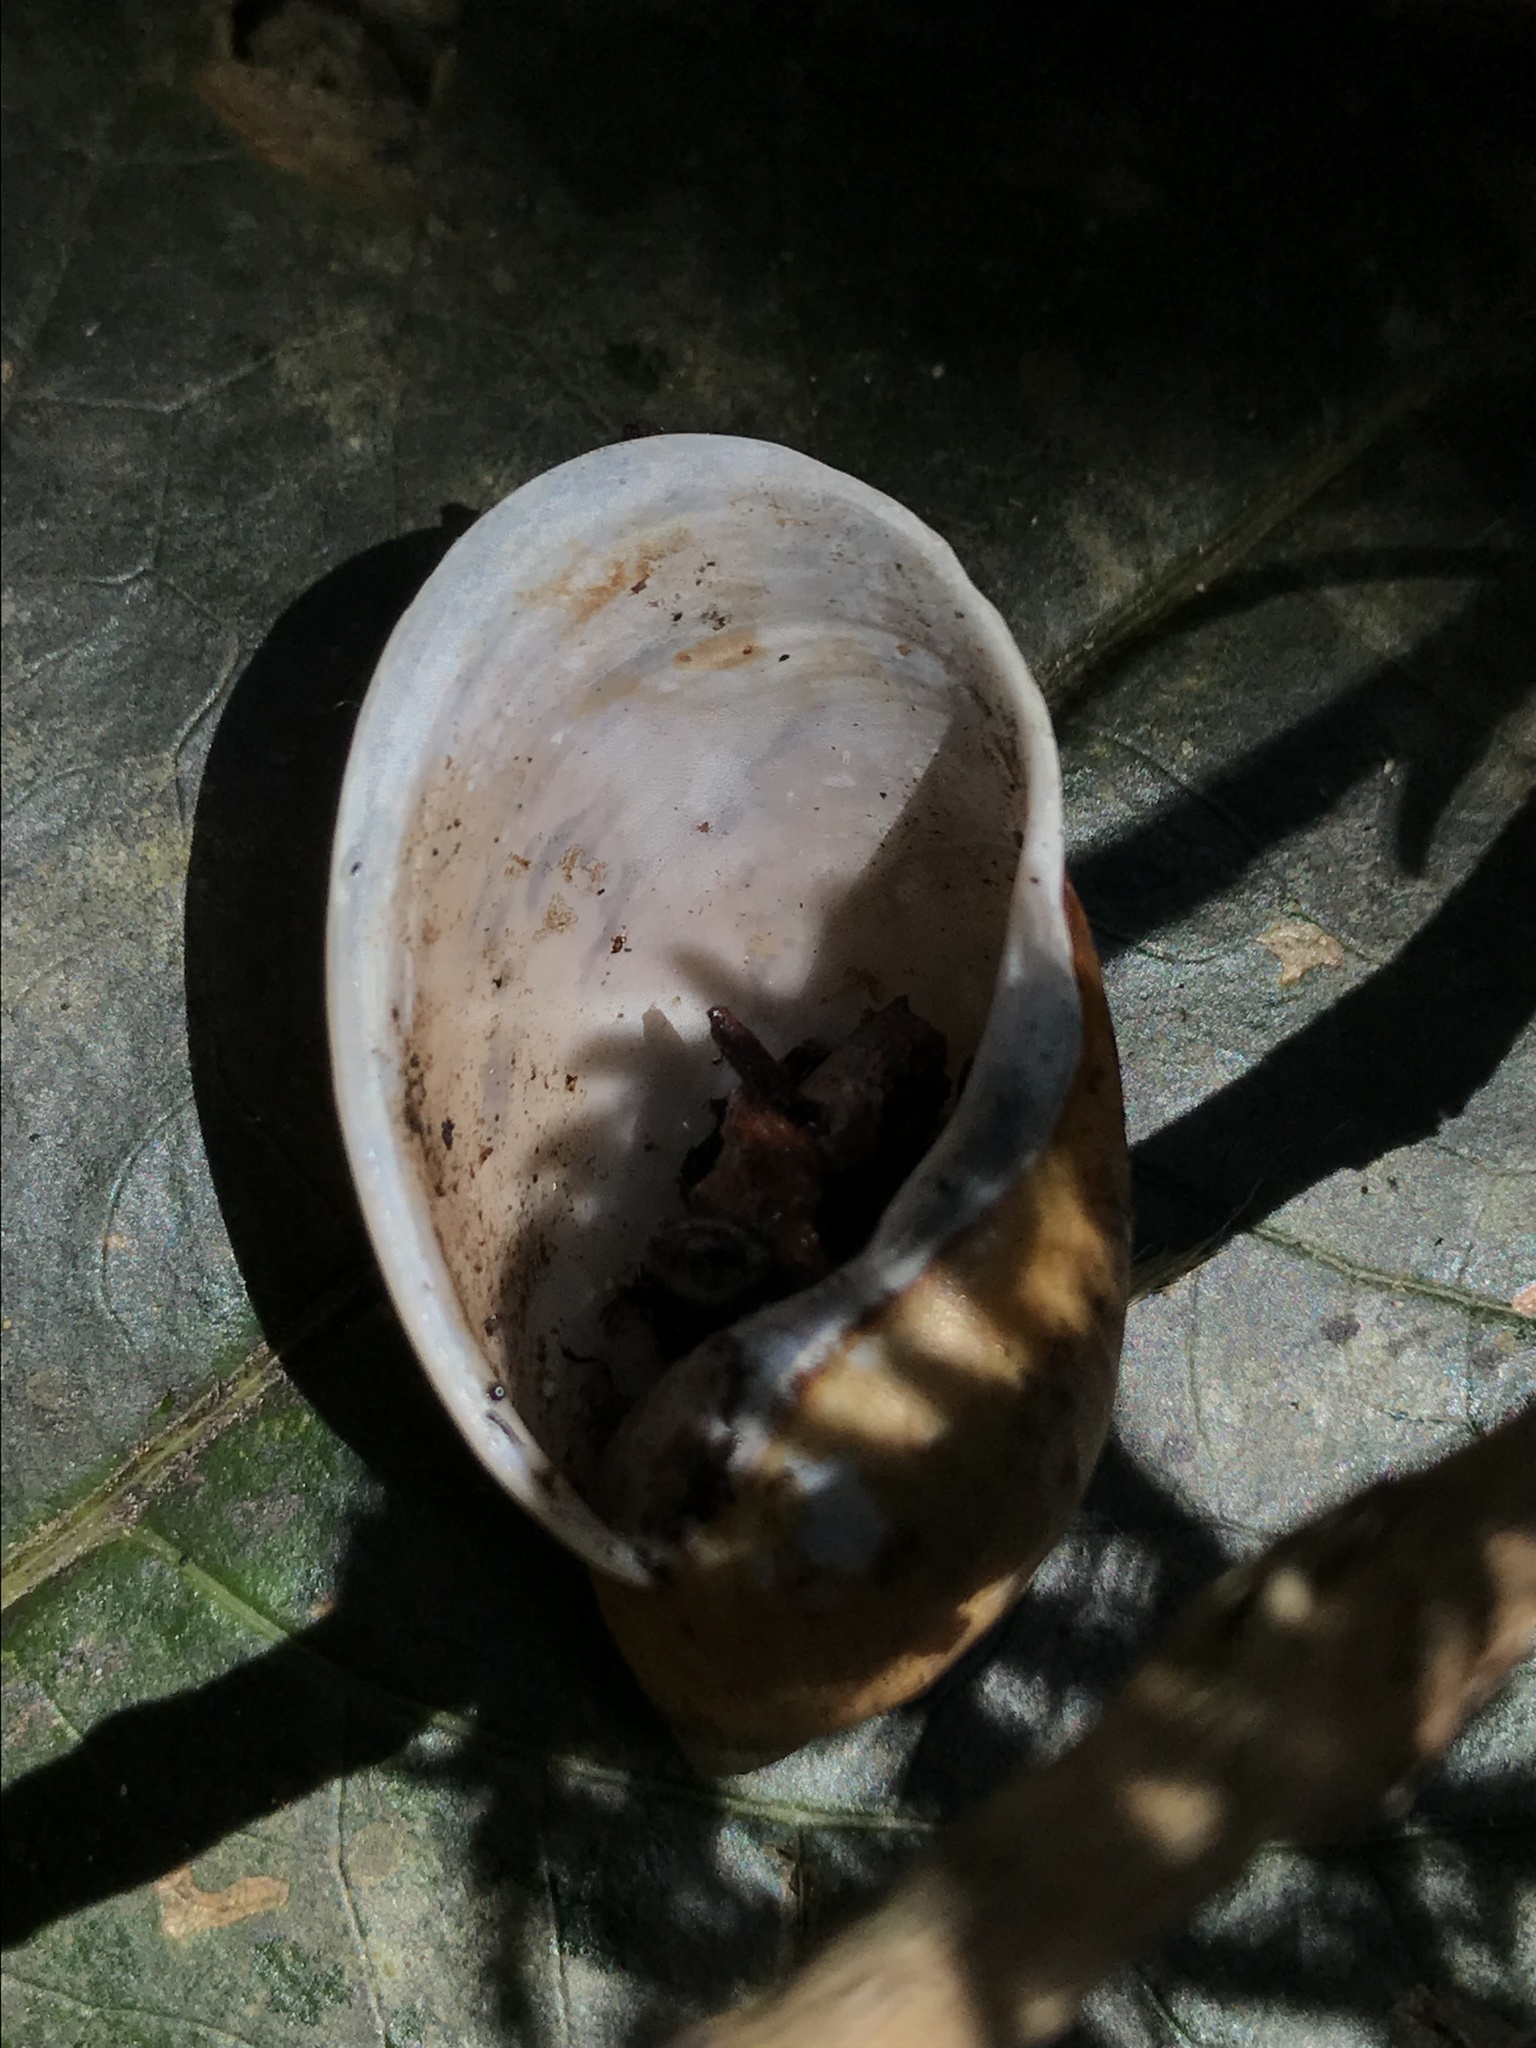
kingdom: Animalia
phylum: Mollusca
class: Gastropoda
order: Stylommatophora
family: Amphibulimidae
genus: Plekocheilus
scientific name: Plekocheilus delicatus
